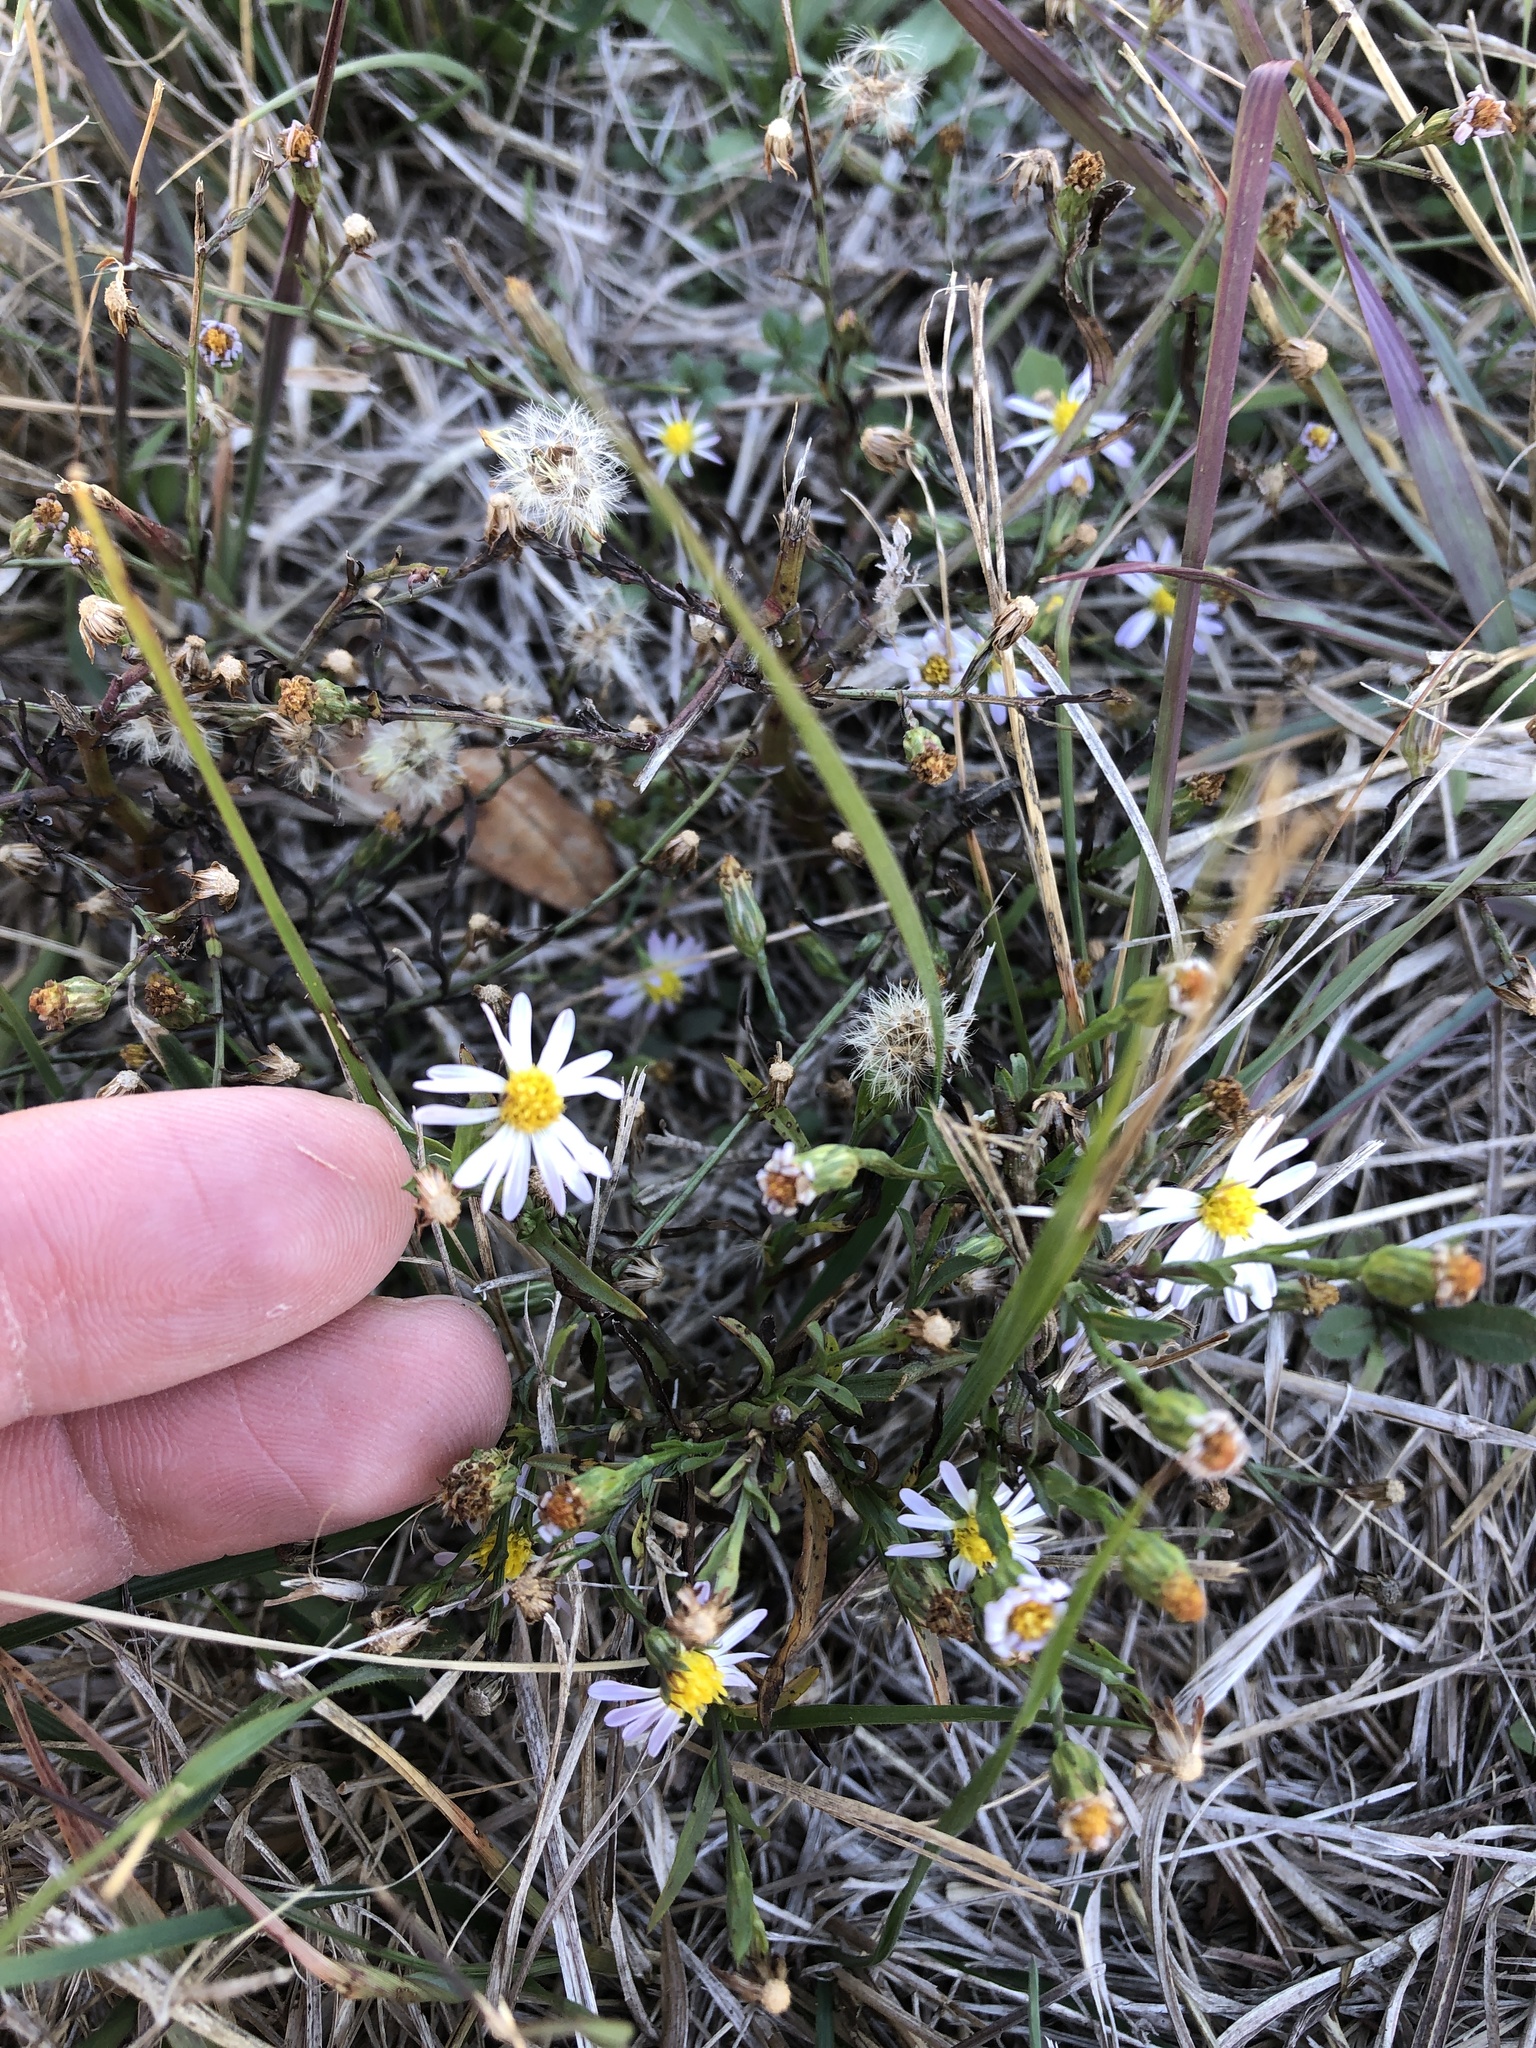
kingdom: Plantae
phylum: Tracheophyta
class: Magnoliopsida
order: Asterales
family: Asteraceae
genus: Symphyotrichum
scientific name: Symphyotrichum divaricatum
